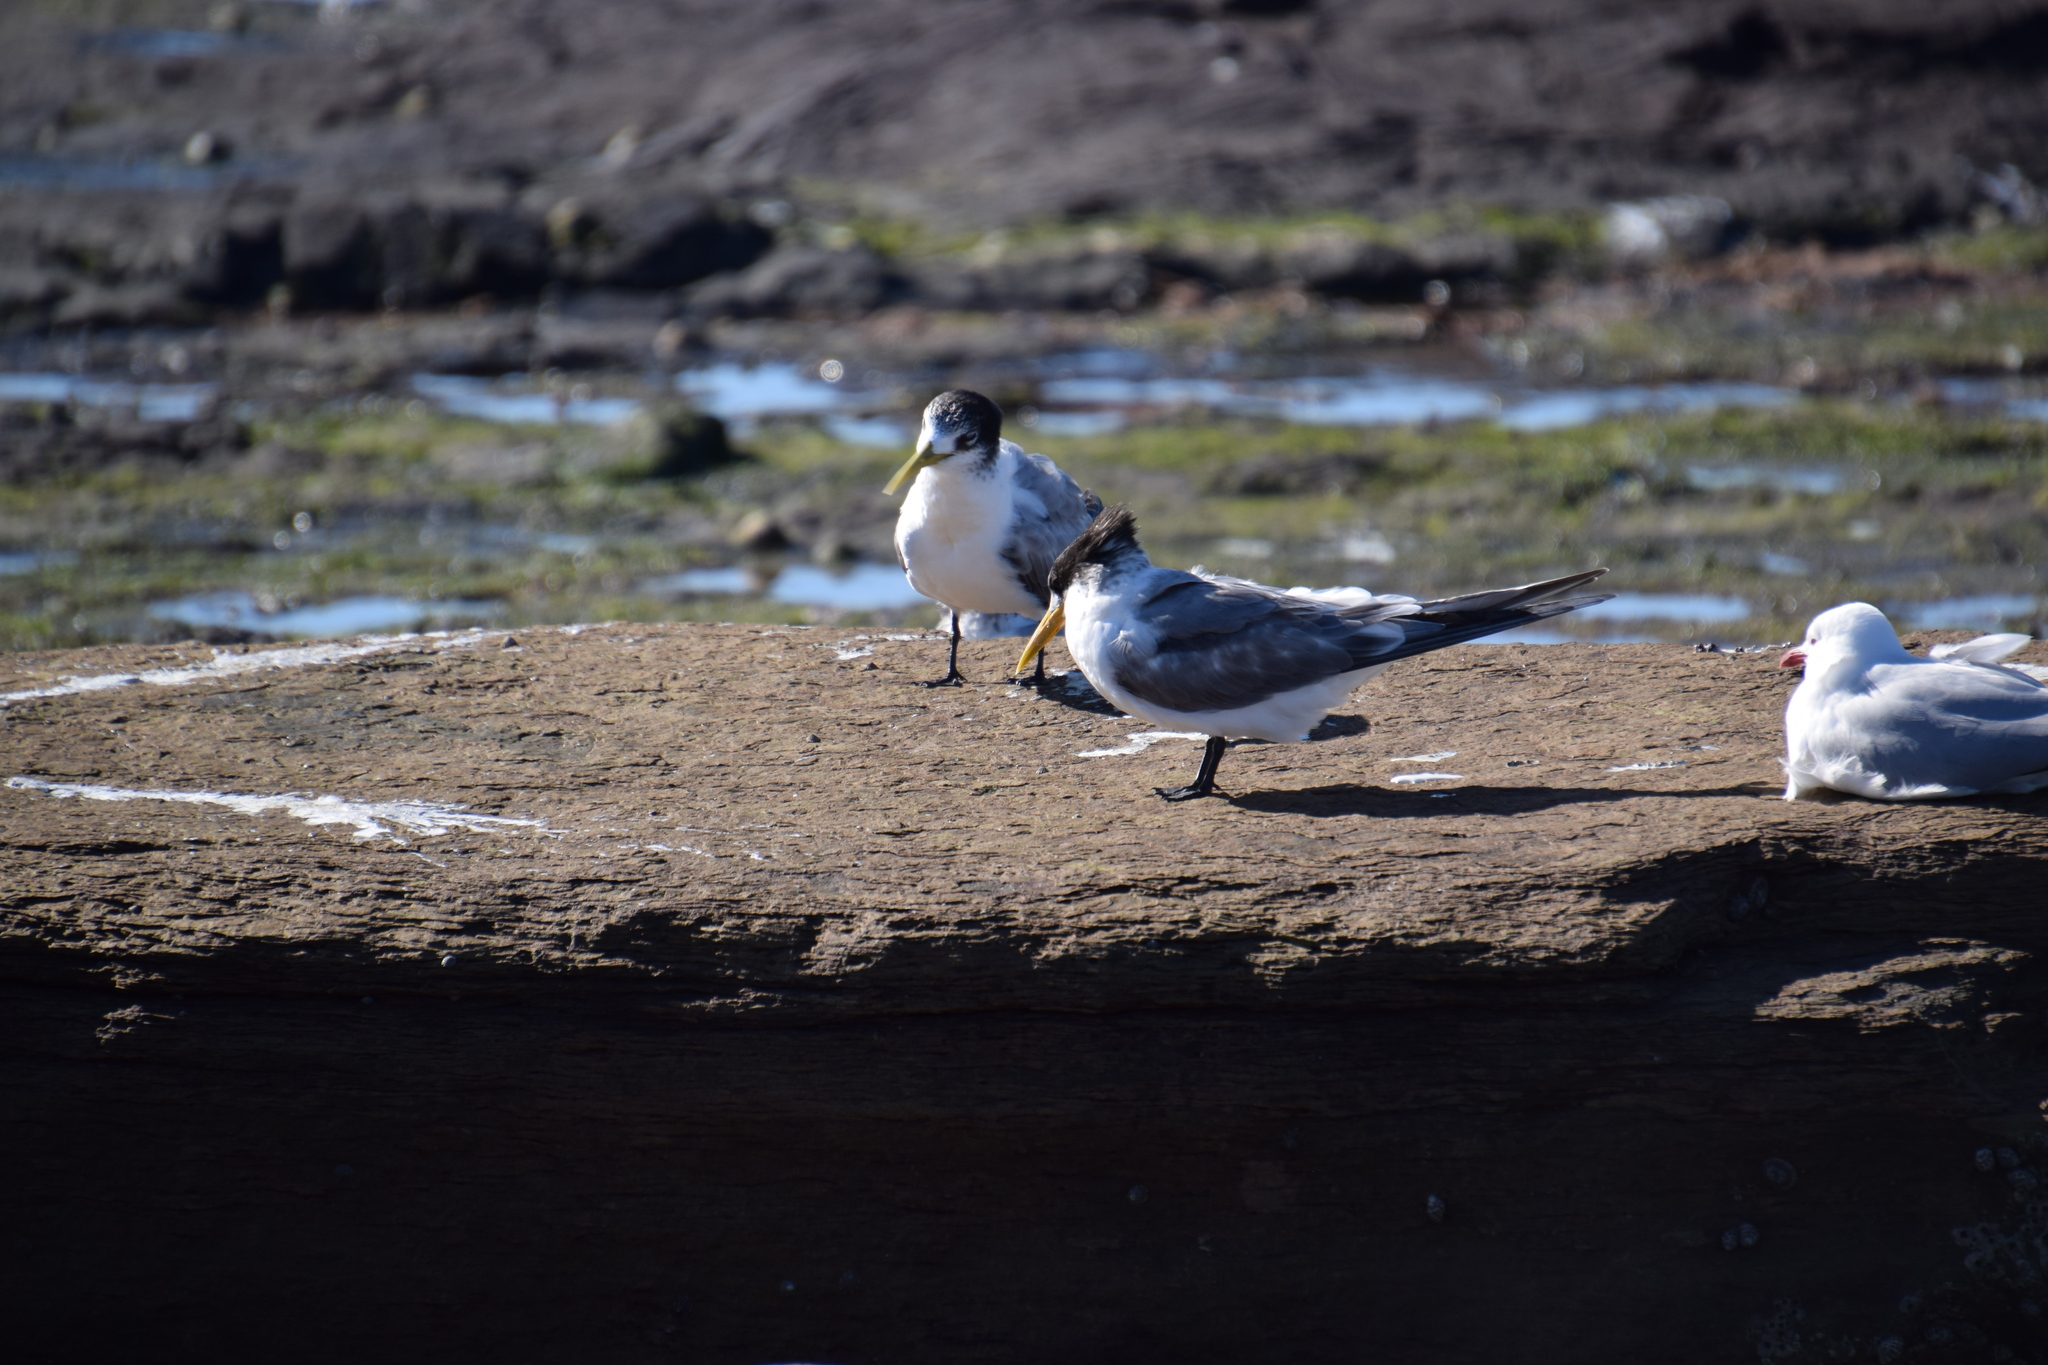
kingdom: Animalia
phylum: Chordata
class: Aves
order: Charadriiformes
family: Laridae
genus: Thalasseus
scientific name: Thalasseus bergii
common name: Greater crested tern
